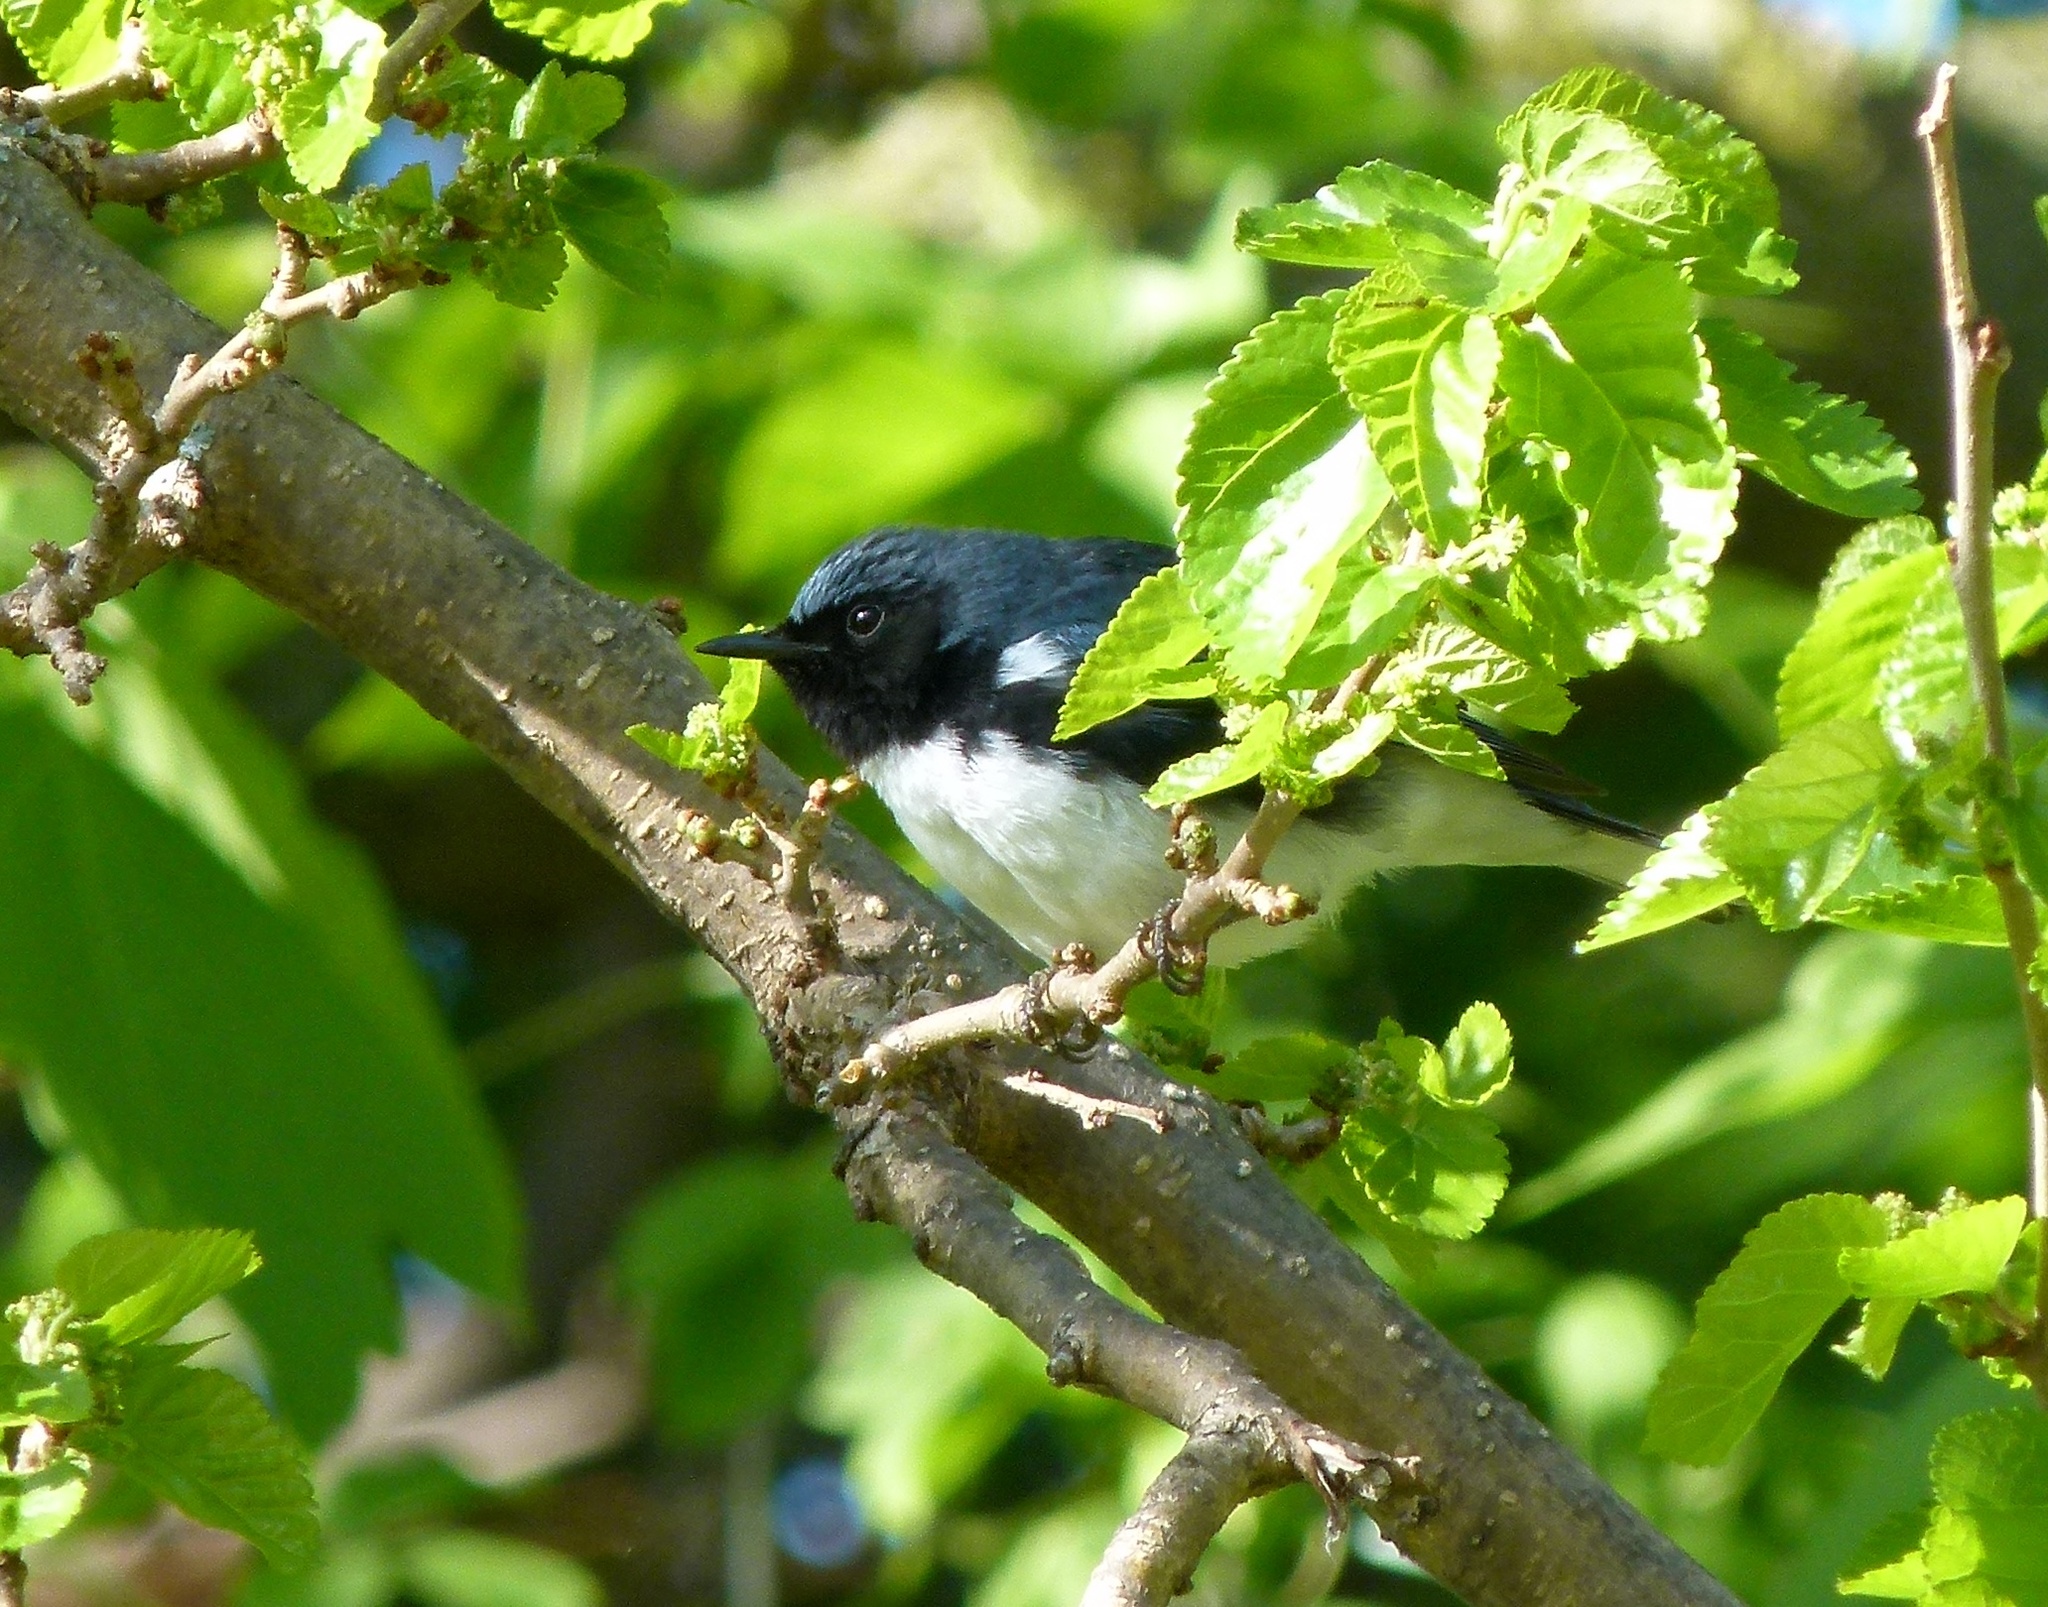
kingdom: Animalia
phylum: Chordata
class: Aves
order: Passeriformes
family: Parulidae
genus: Setophaga
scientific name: Setophaga caerulescens
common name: Black-throated blue warbler
